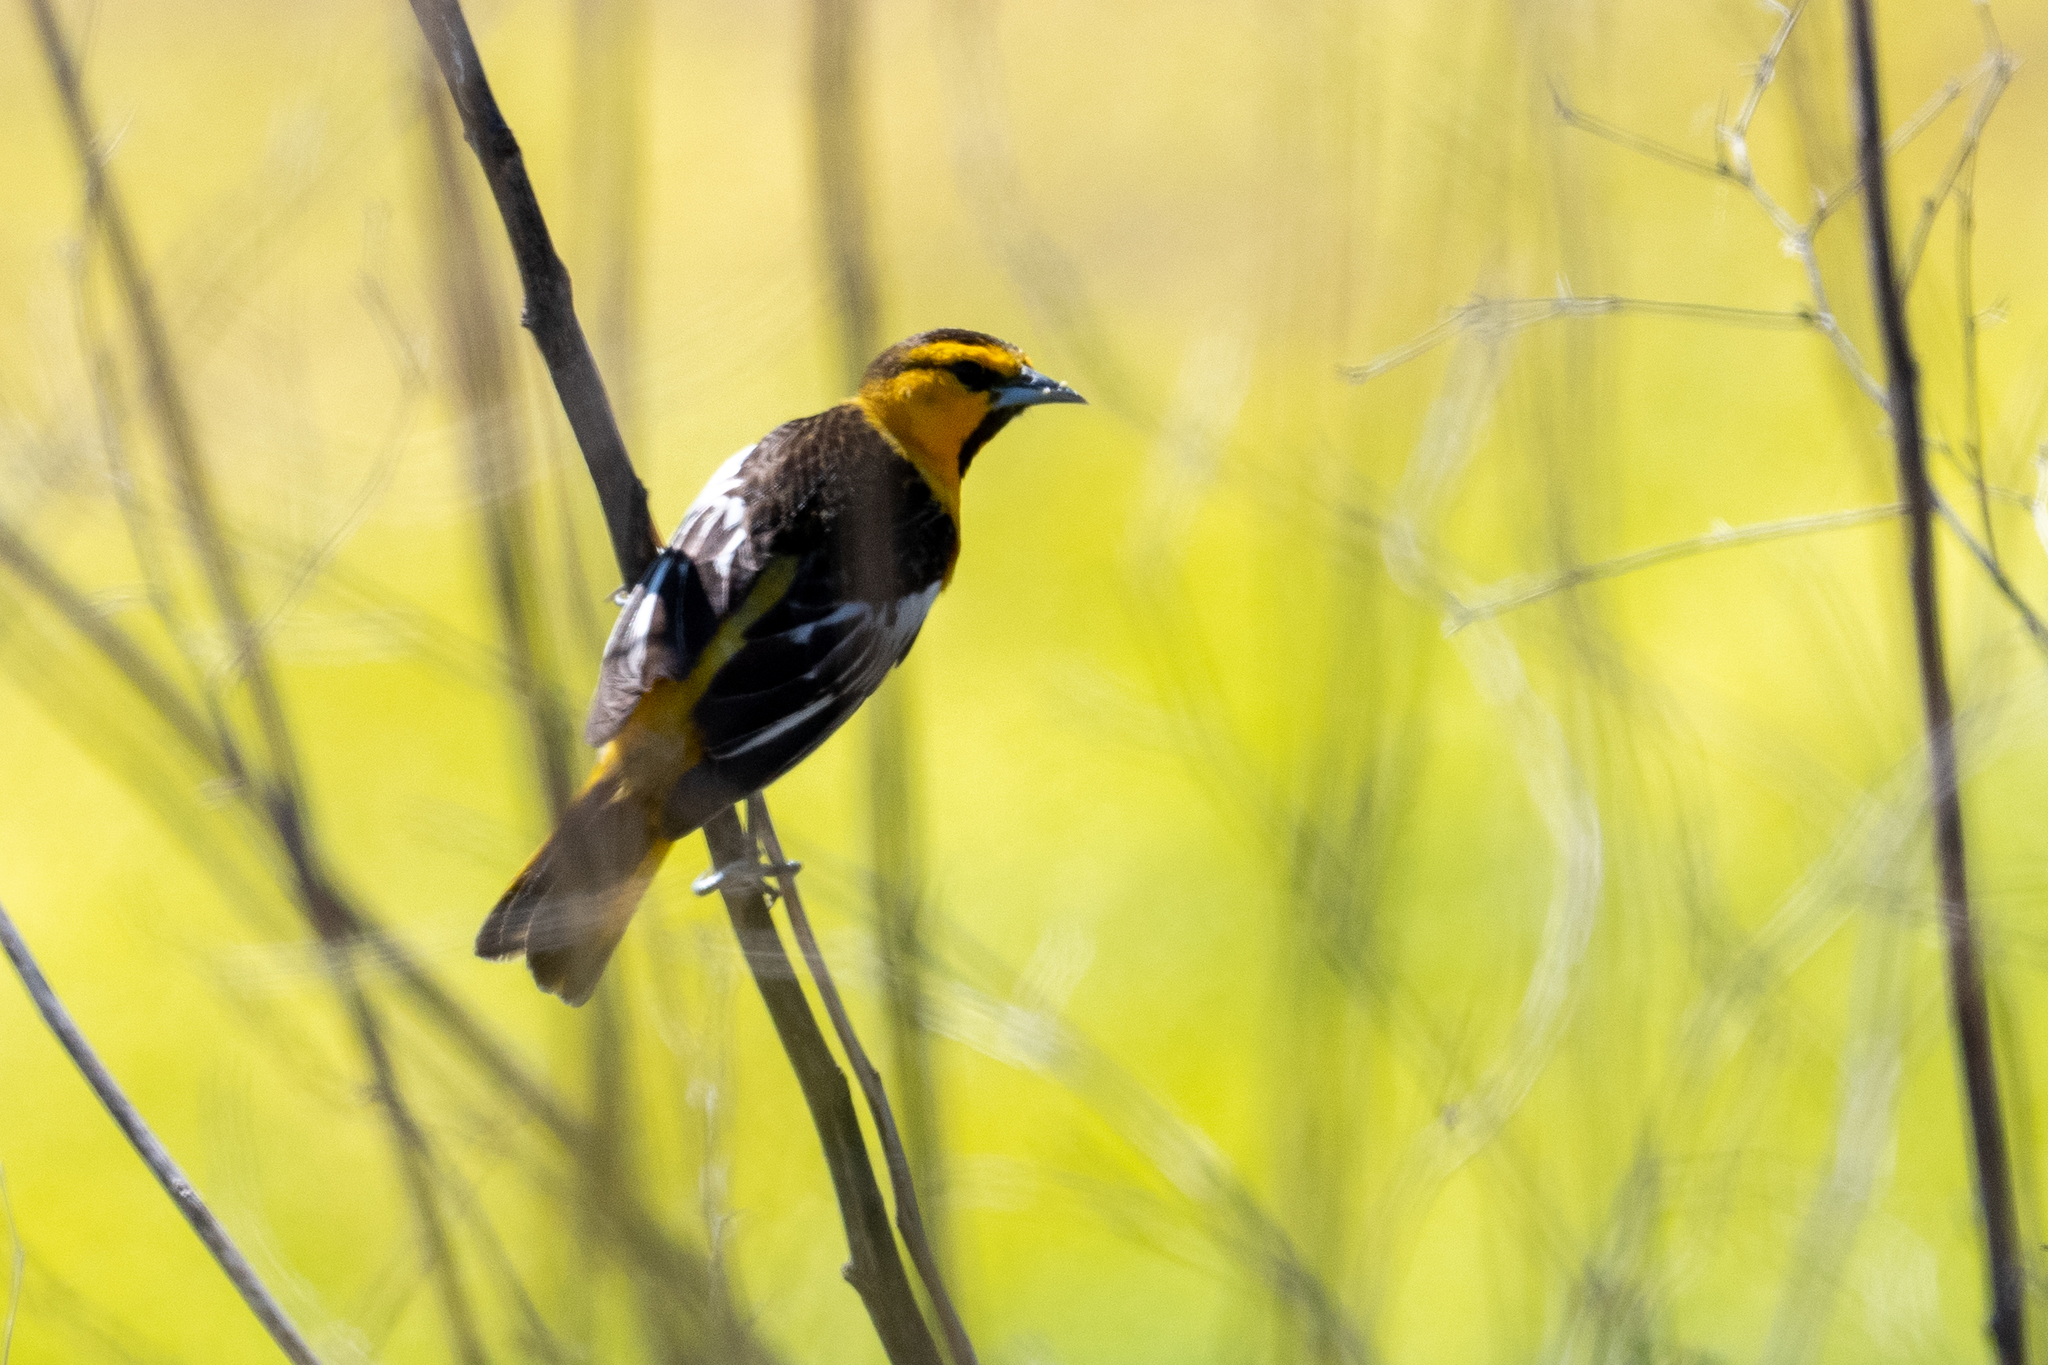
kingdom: Animalia
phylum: Chordata
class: Aves
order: Passeriformes
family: Icteridae
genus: Icterus
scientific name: Icterus bullockii
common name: Bullock's oriole
